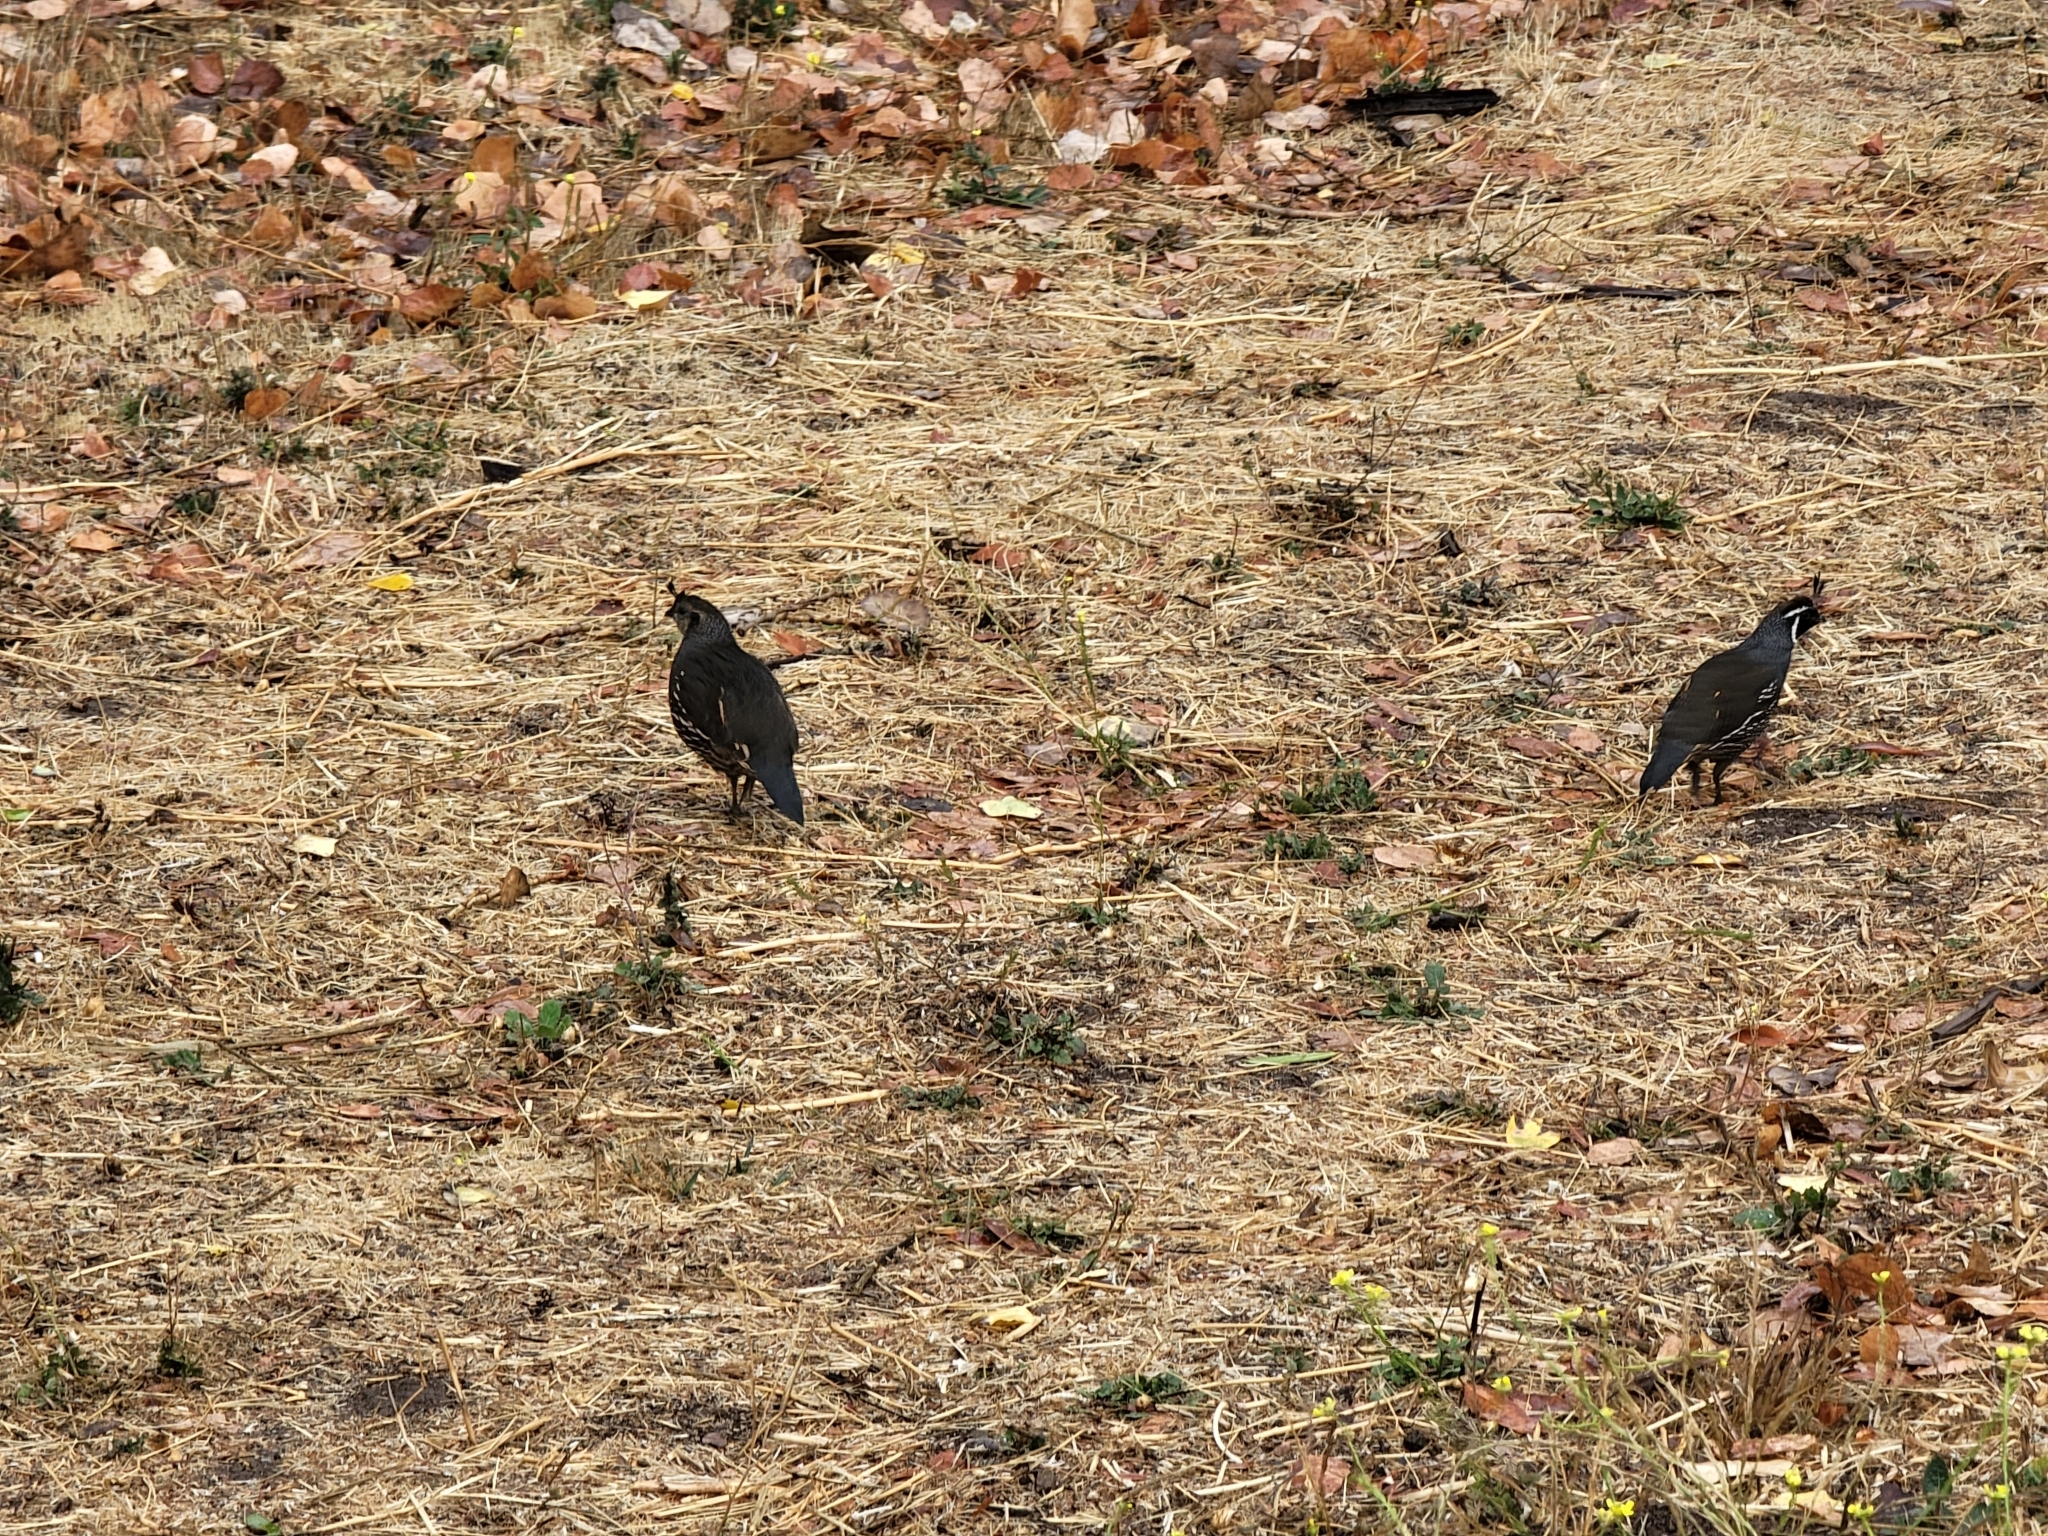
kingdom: Animalia
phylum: Chordata
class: Aves
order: Galliformes
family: Odontophoridae
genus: Callipepla
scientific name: Callipepla californica
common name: California quail
